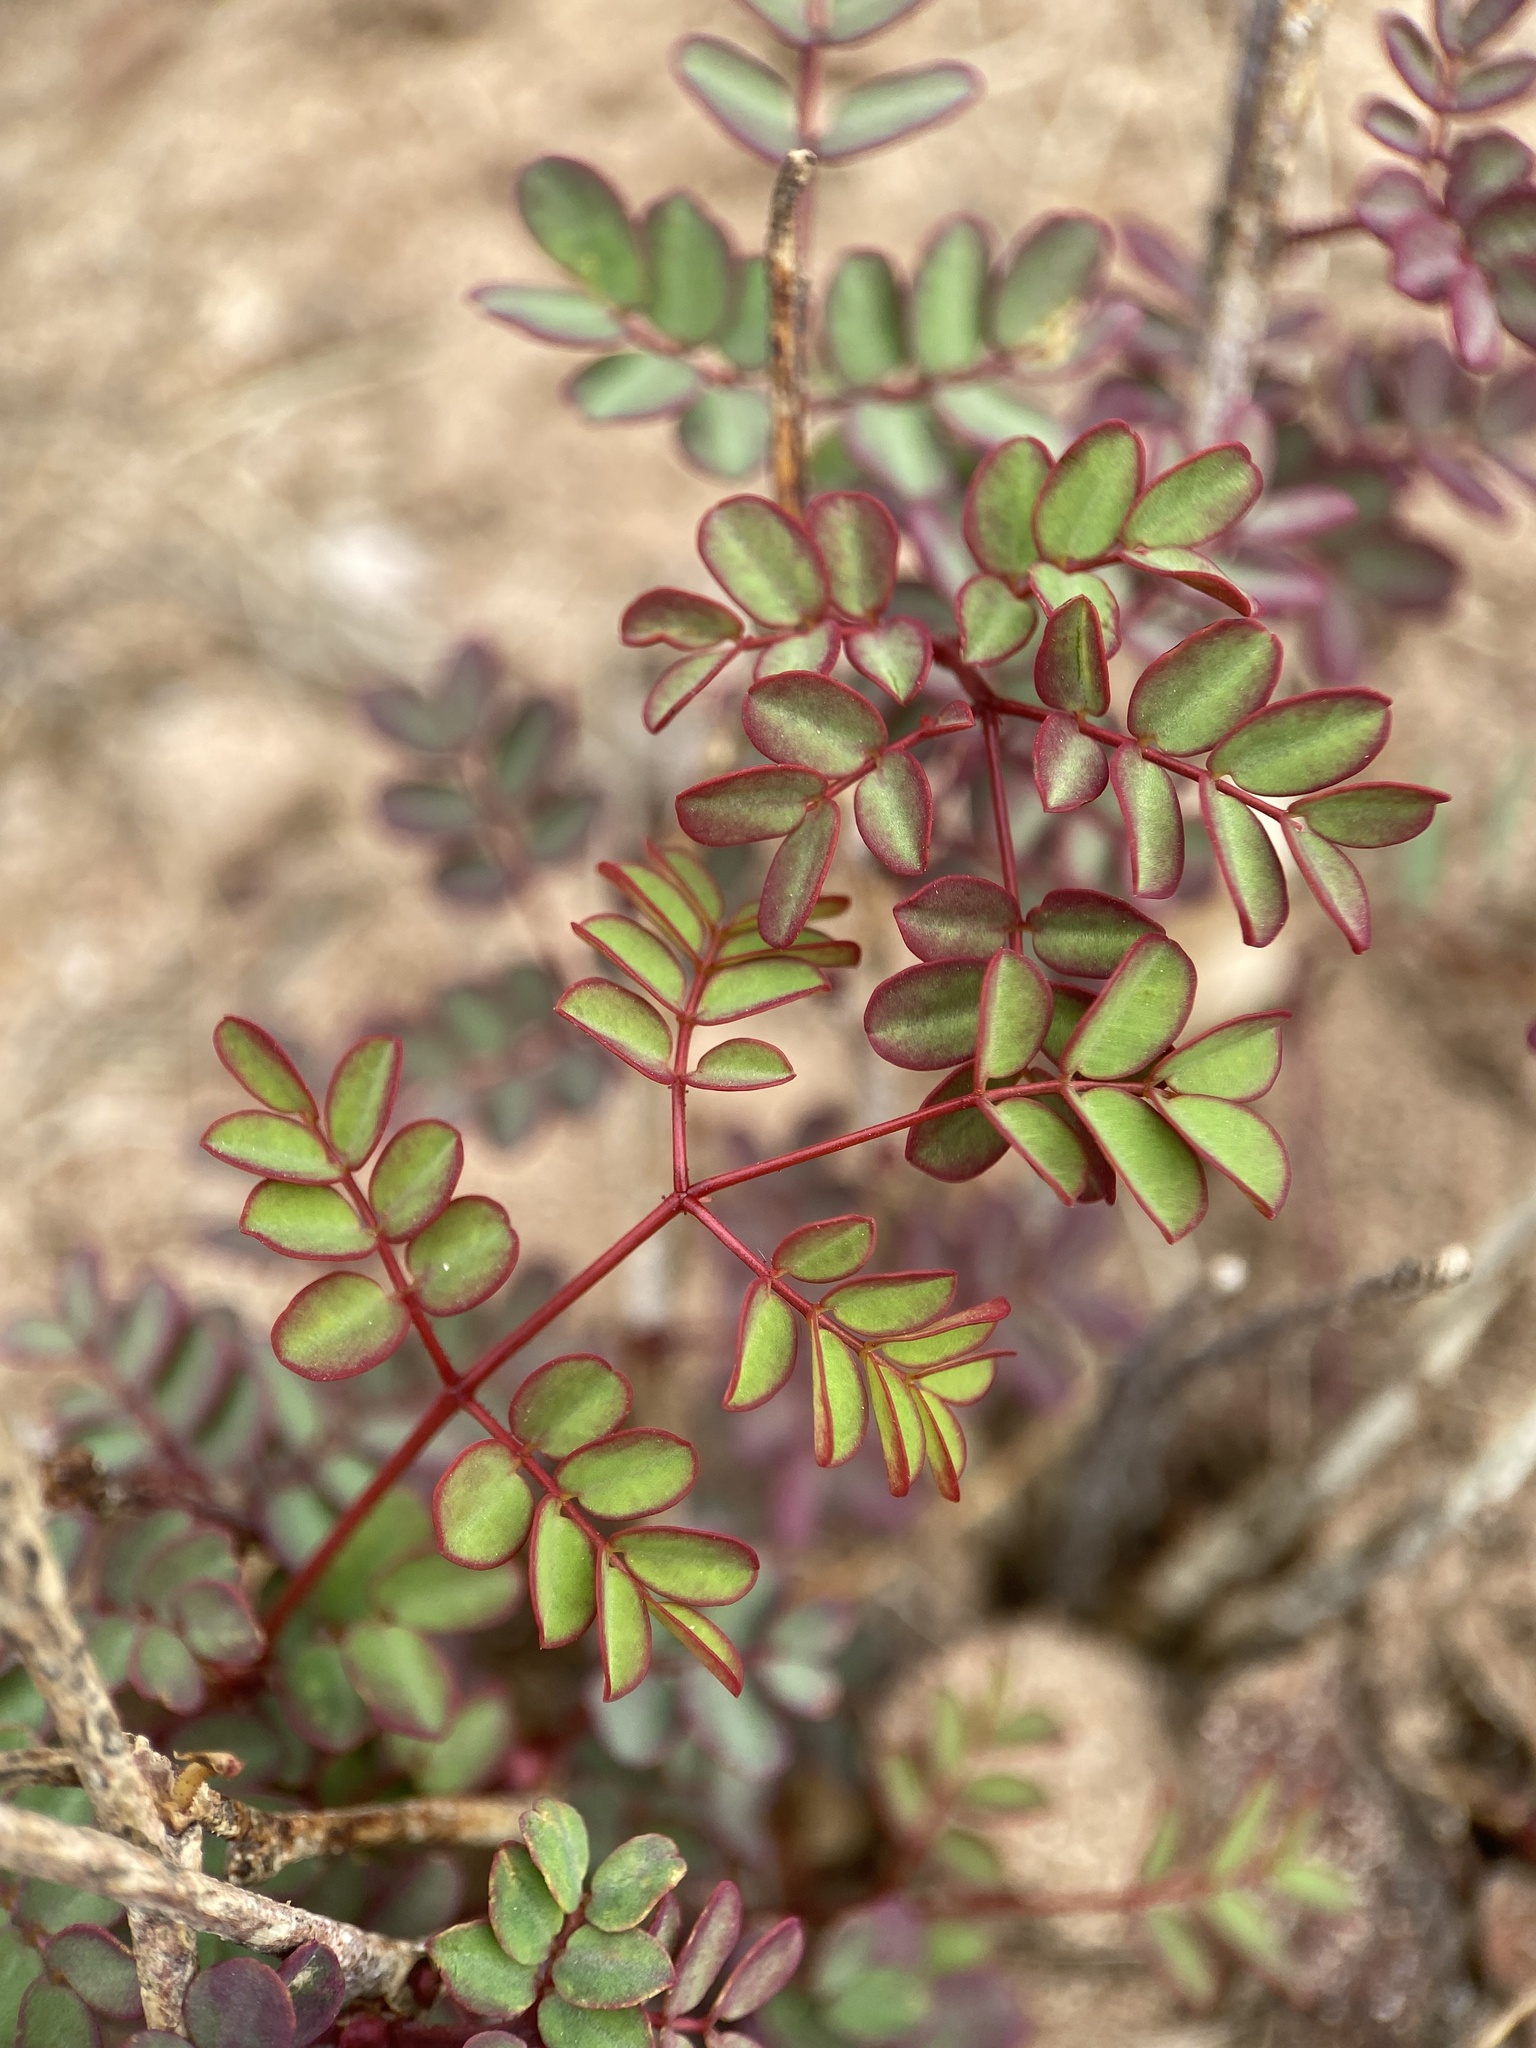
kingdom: Plantae
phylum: Tracheophyta
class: Magnoliopsida
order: Fabales
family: Fabaceae
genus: Erythrostemon
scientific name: Erythrostemon pannosus
